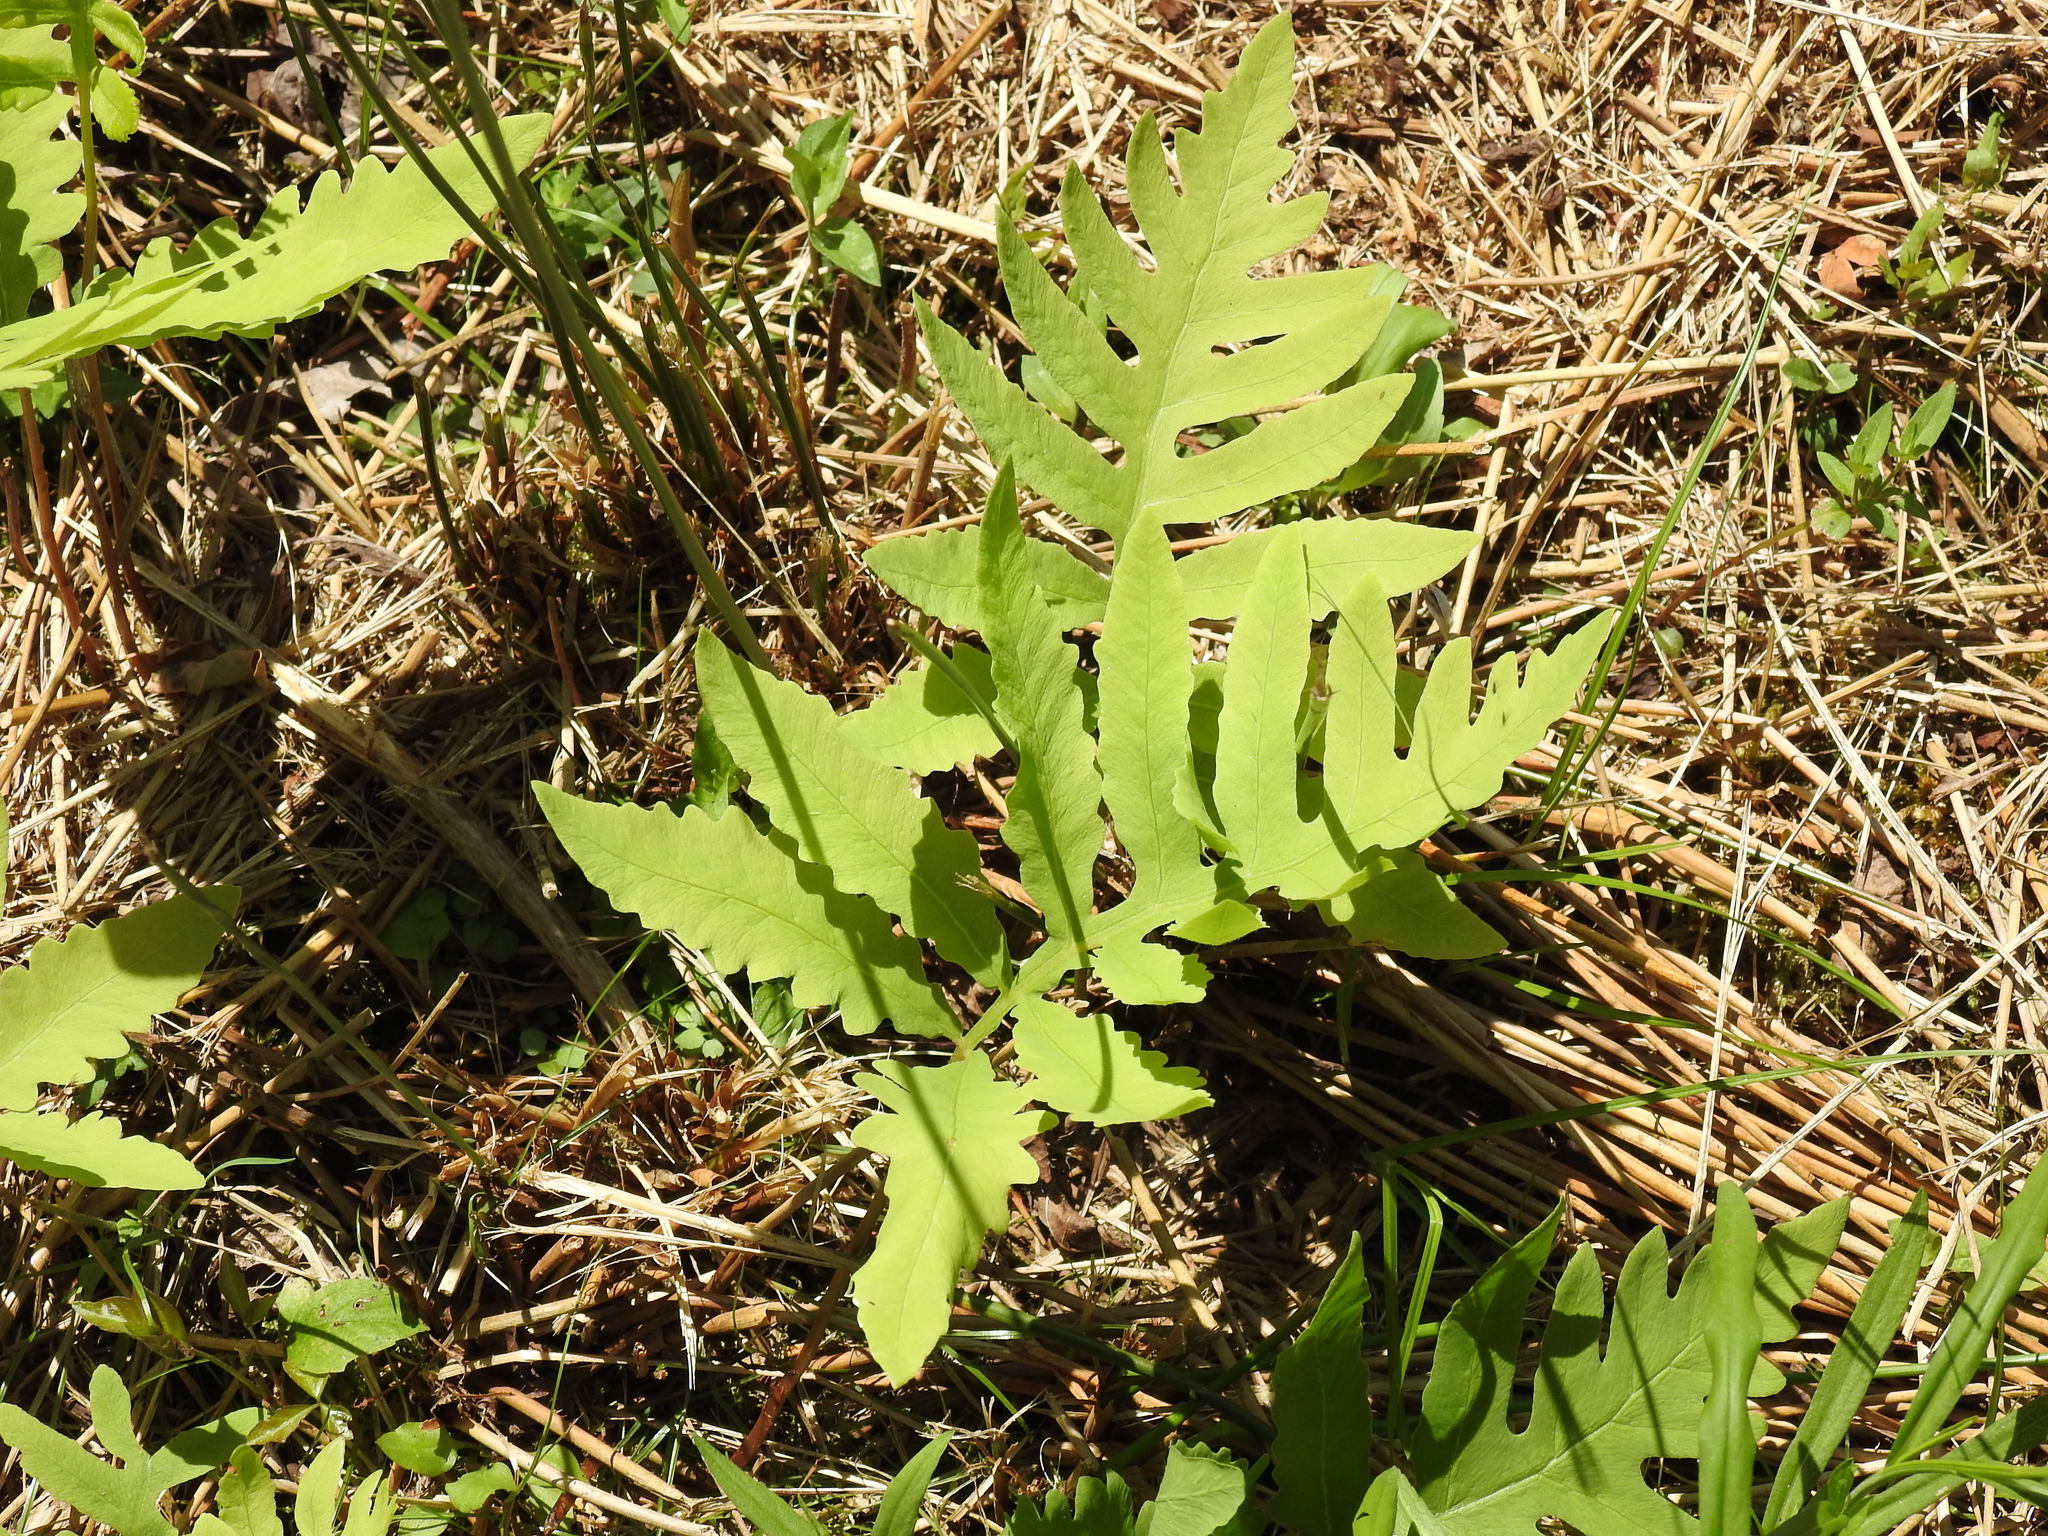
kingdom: Plantae
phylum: Tracheophyta
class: Polypodiopsida
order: Polypodiales
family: Onocleaceae
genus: Onoclea
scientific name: Onoclea sensibilis
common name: Sensitive fern
